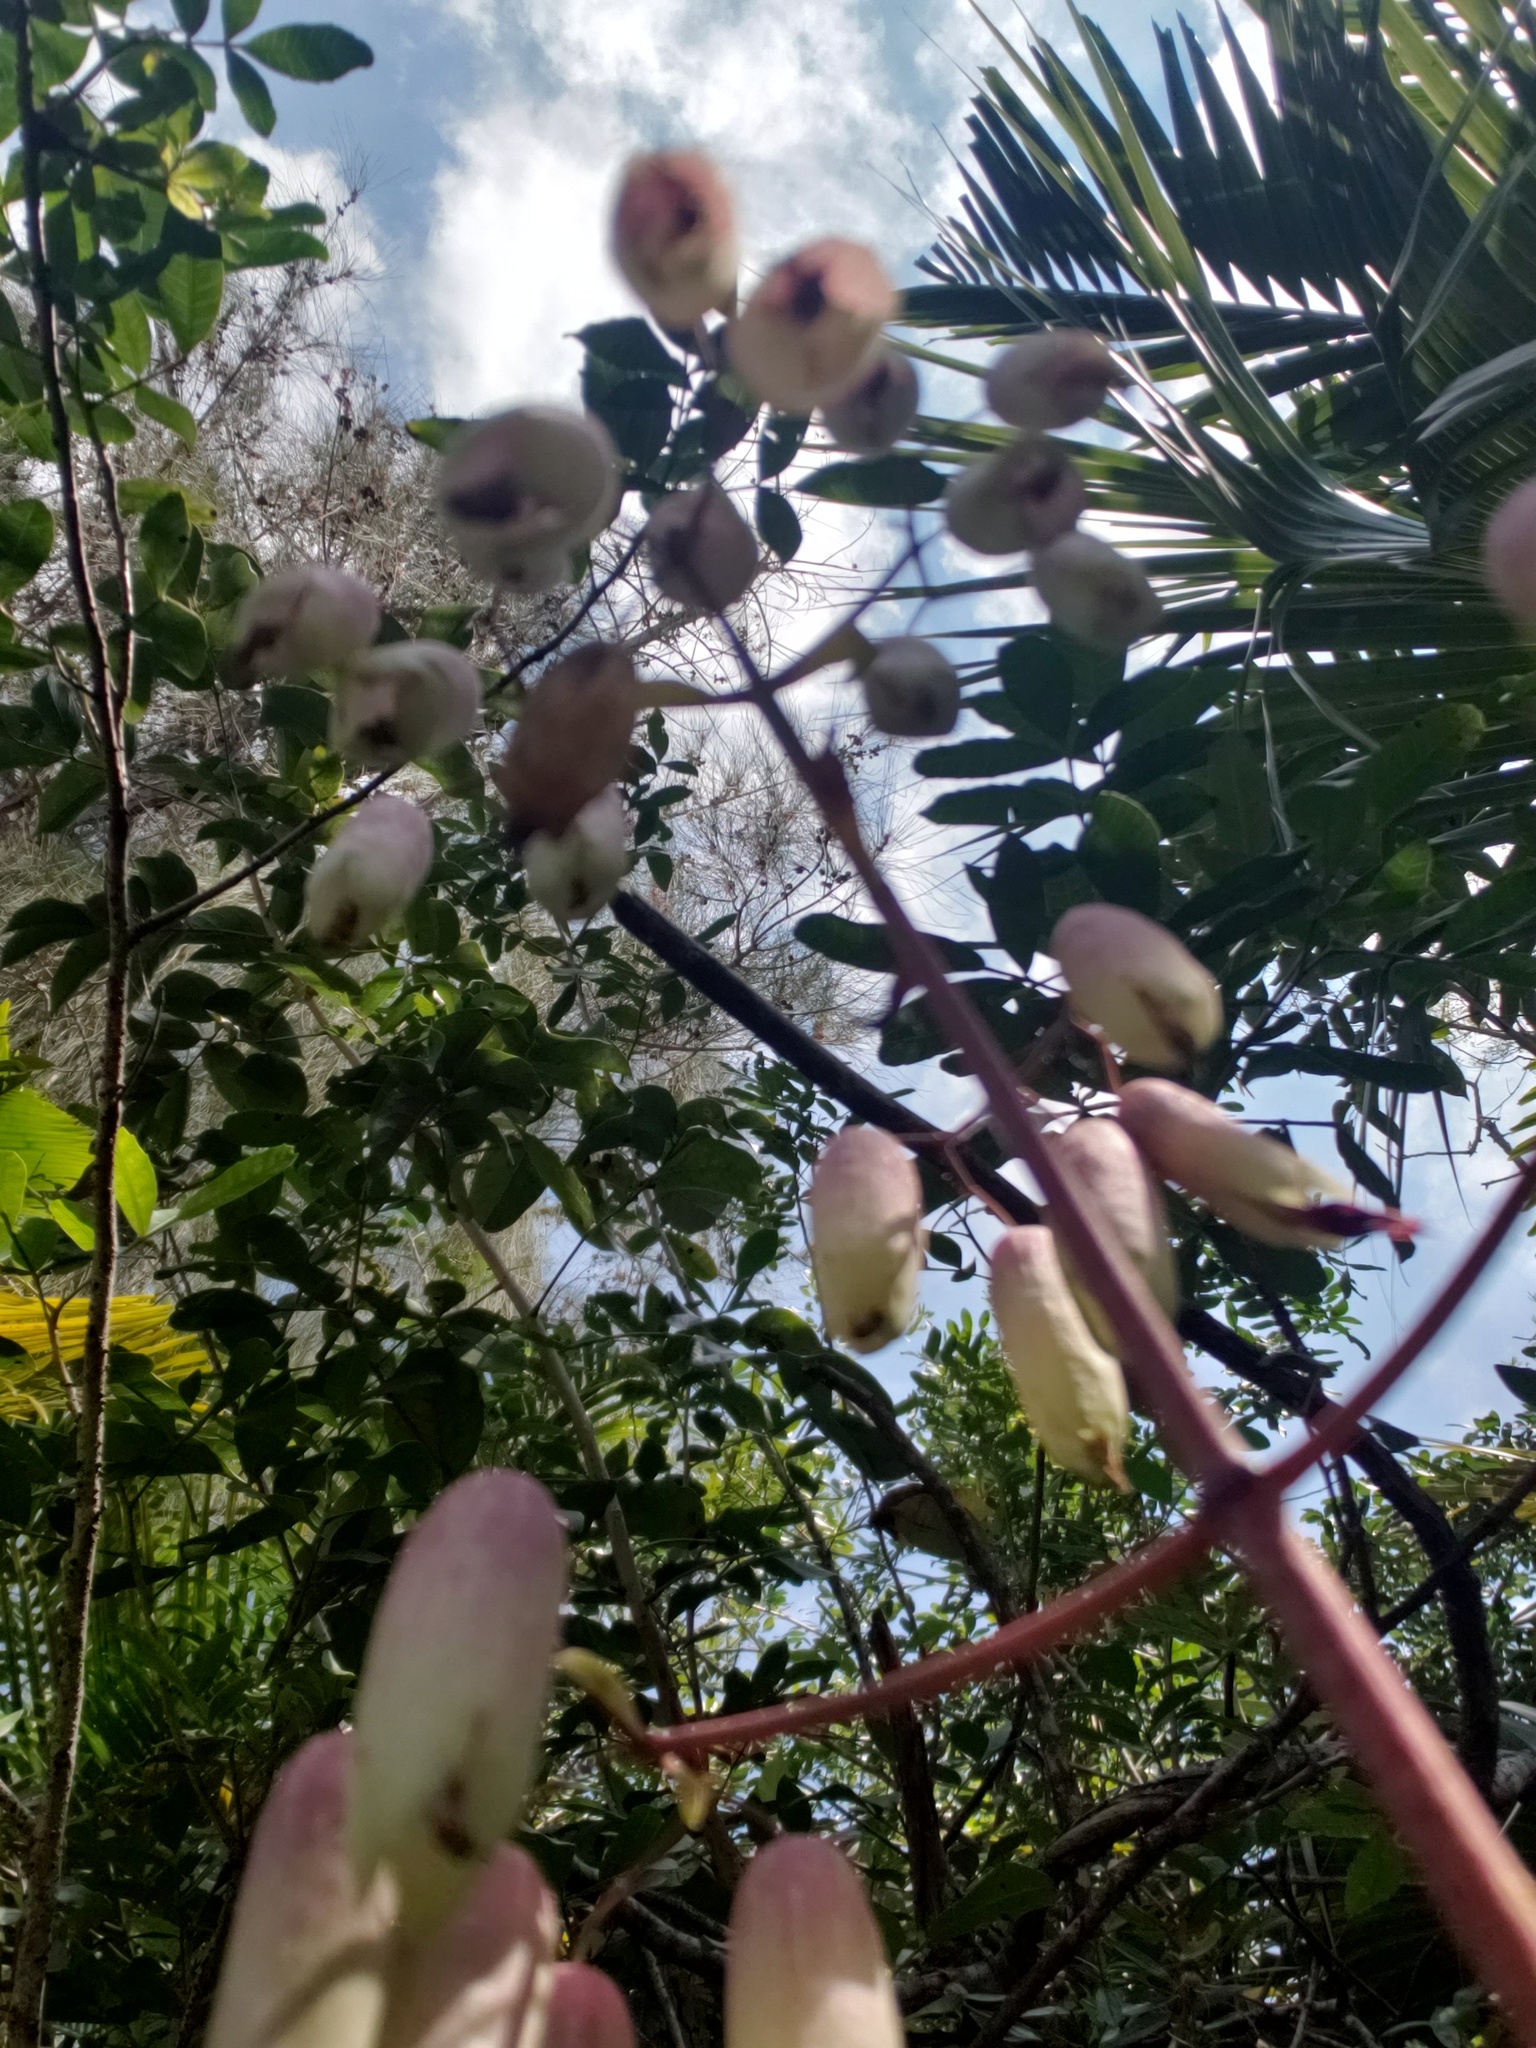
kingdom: Plantae
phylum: Tracheophyta
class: Magnoliopsida
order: Saxifragales
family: Crassulaceae
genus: Kalanchoe
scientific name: Kalanchoe pinnata
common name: Cathedral bells
